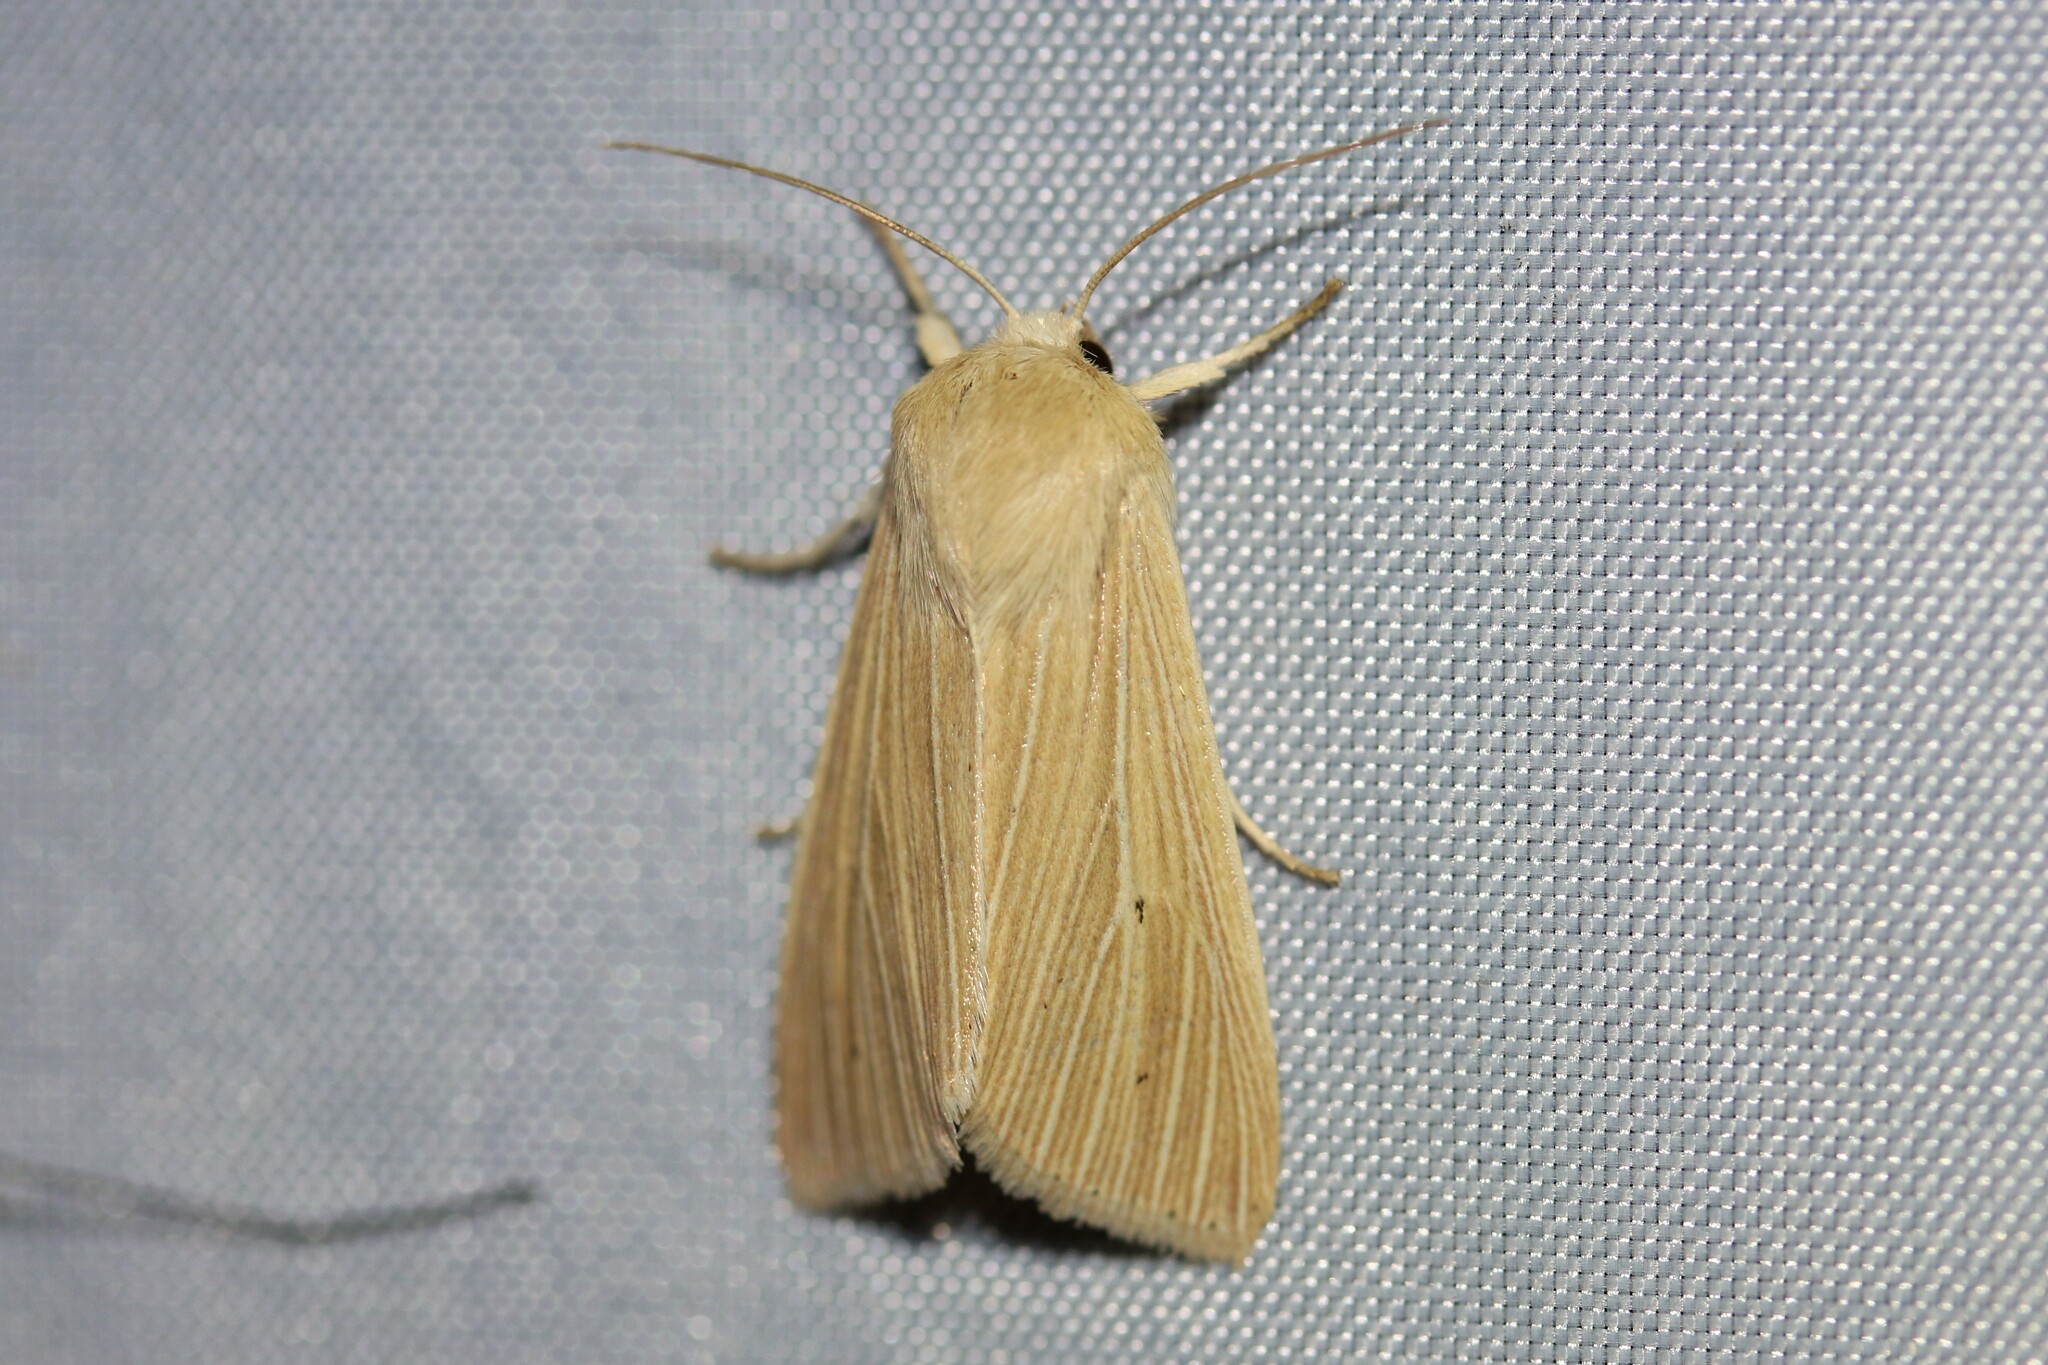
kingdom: Animalia
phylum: Arthropoda
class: Insecta
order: Lepidoptera
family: Noctuidae
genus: Mythimna
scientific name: Mythimna pallens
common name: Common wainscot
